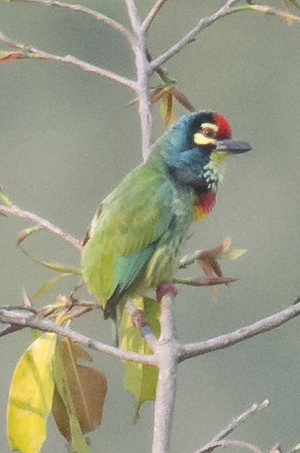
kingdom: Animalia
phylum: Chordata
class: Aves
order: Piciformes
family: Megalaimidae
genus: Psilopogon
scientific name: Psilopogon haemacephalus
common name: Coppersmith barbet
